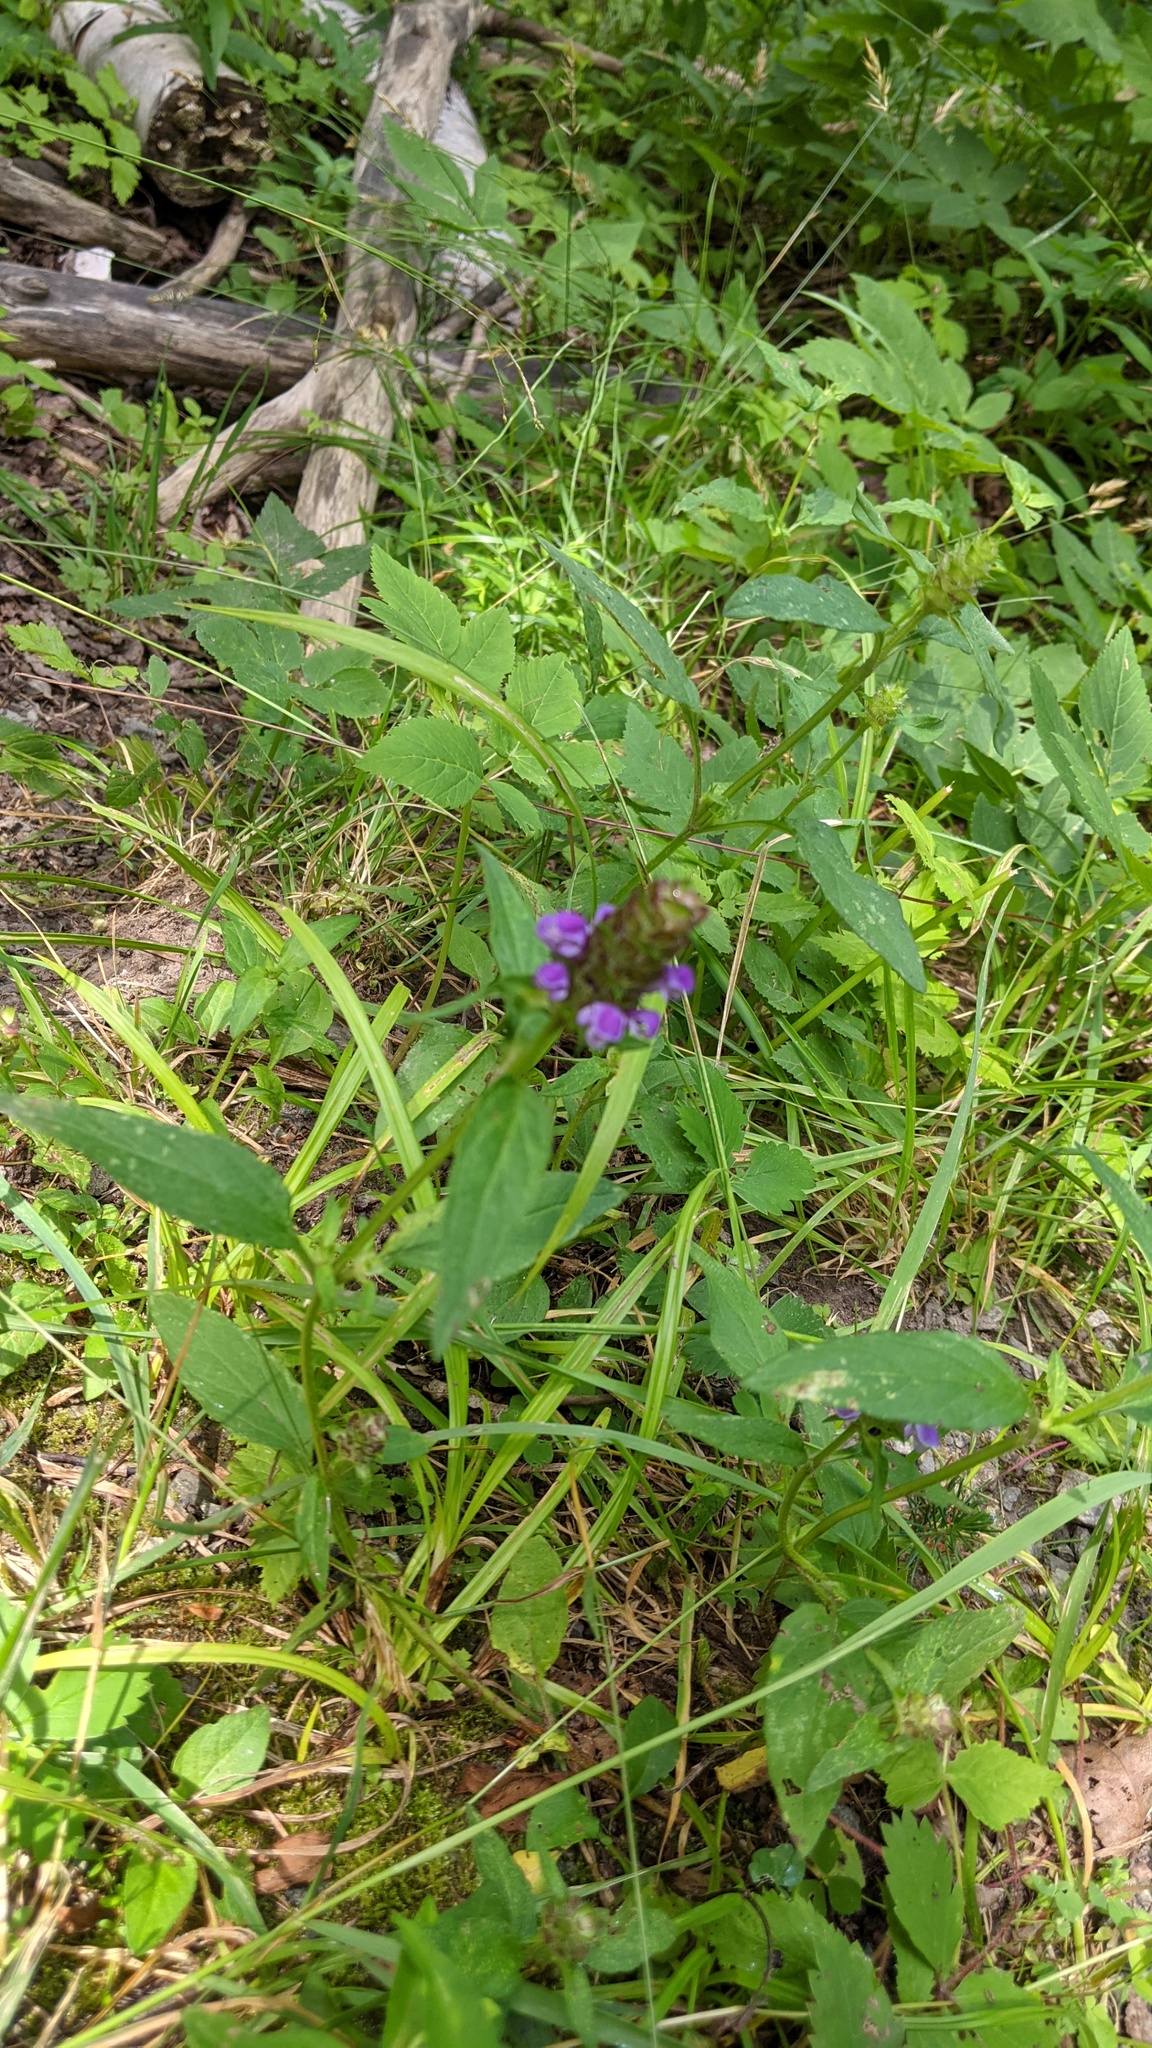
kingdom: Plantae
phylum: Tracheophyta
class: Magnoliopsida
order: Lamiales
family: Lamiaceae
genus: Prunella
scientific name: Prunella vulgaris
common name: Heal-all
